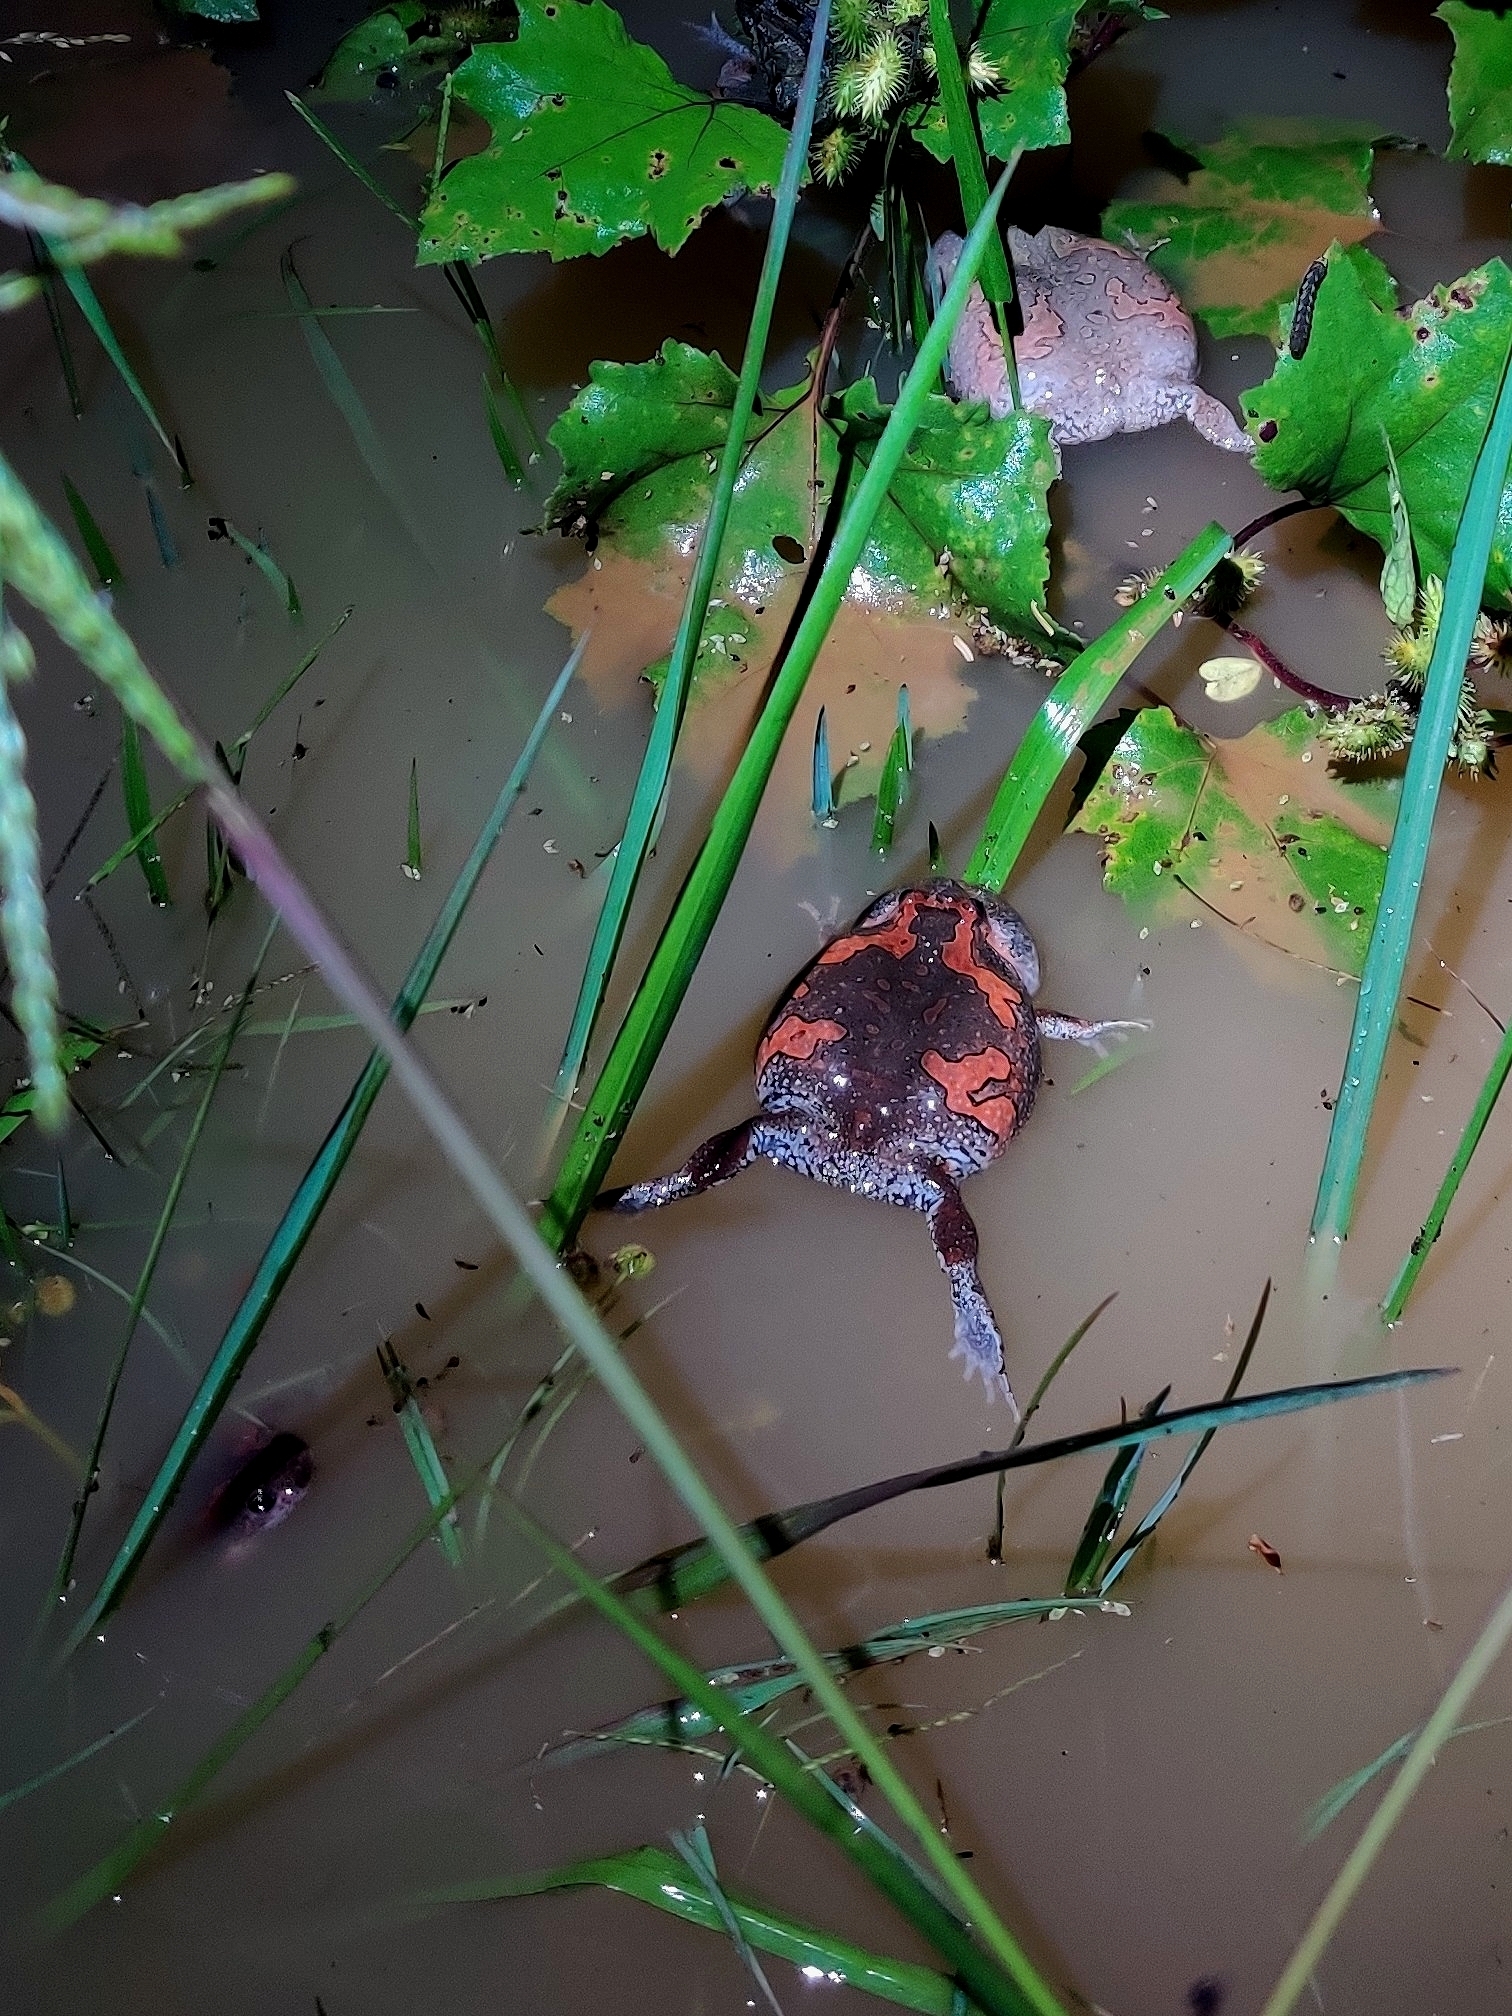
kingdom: Animalia
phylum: Chordata
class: Amphibia
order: Anura
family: Microhylidae
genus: Uperodon
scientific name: Uperodon taprobanicus
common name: Ceylon kaloula
